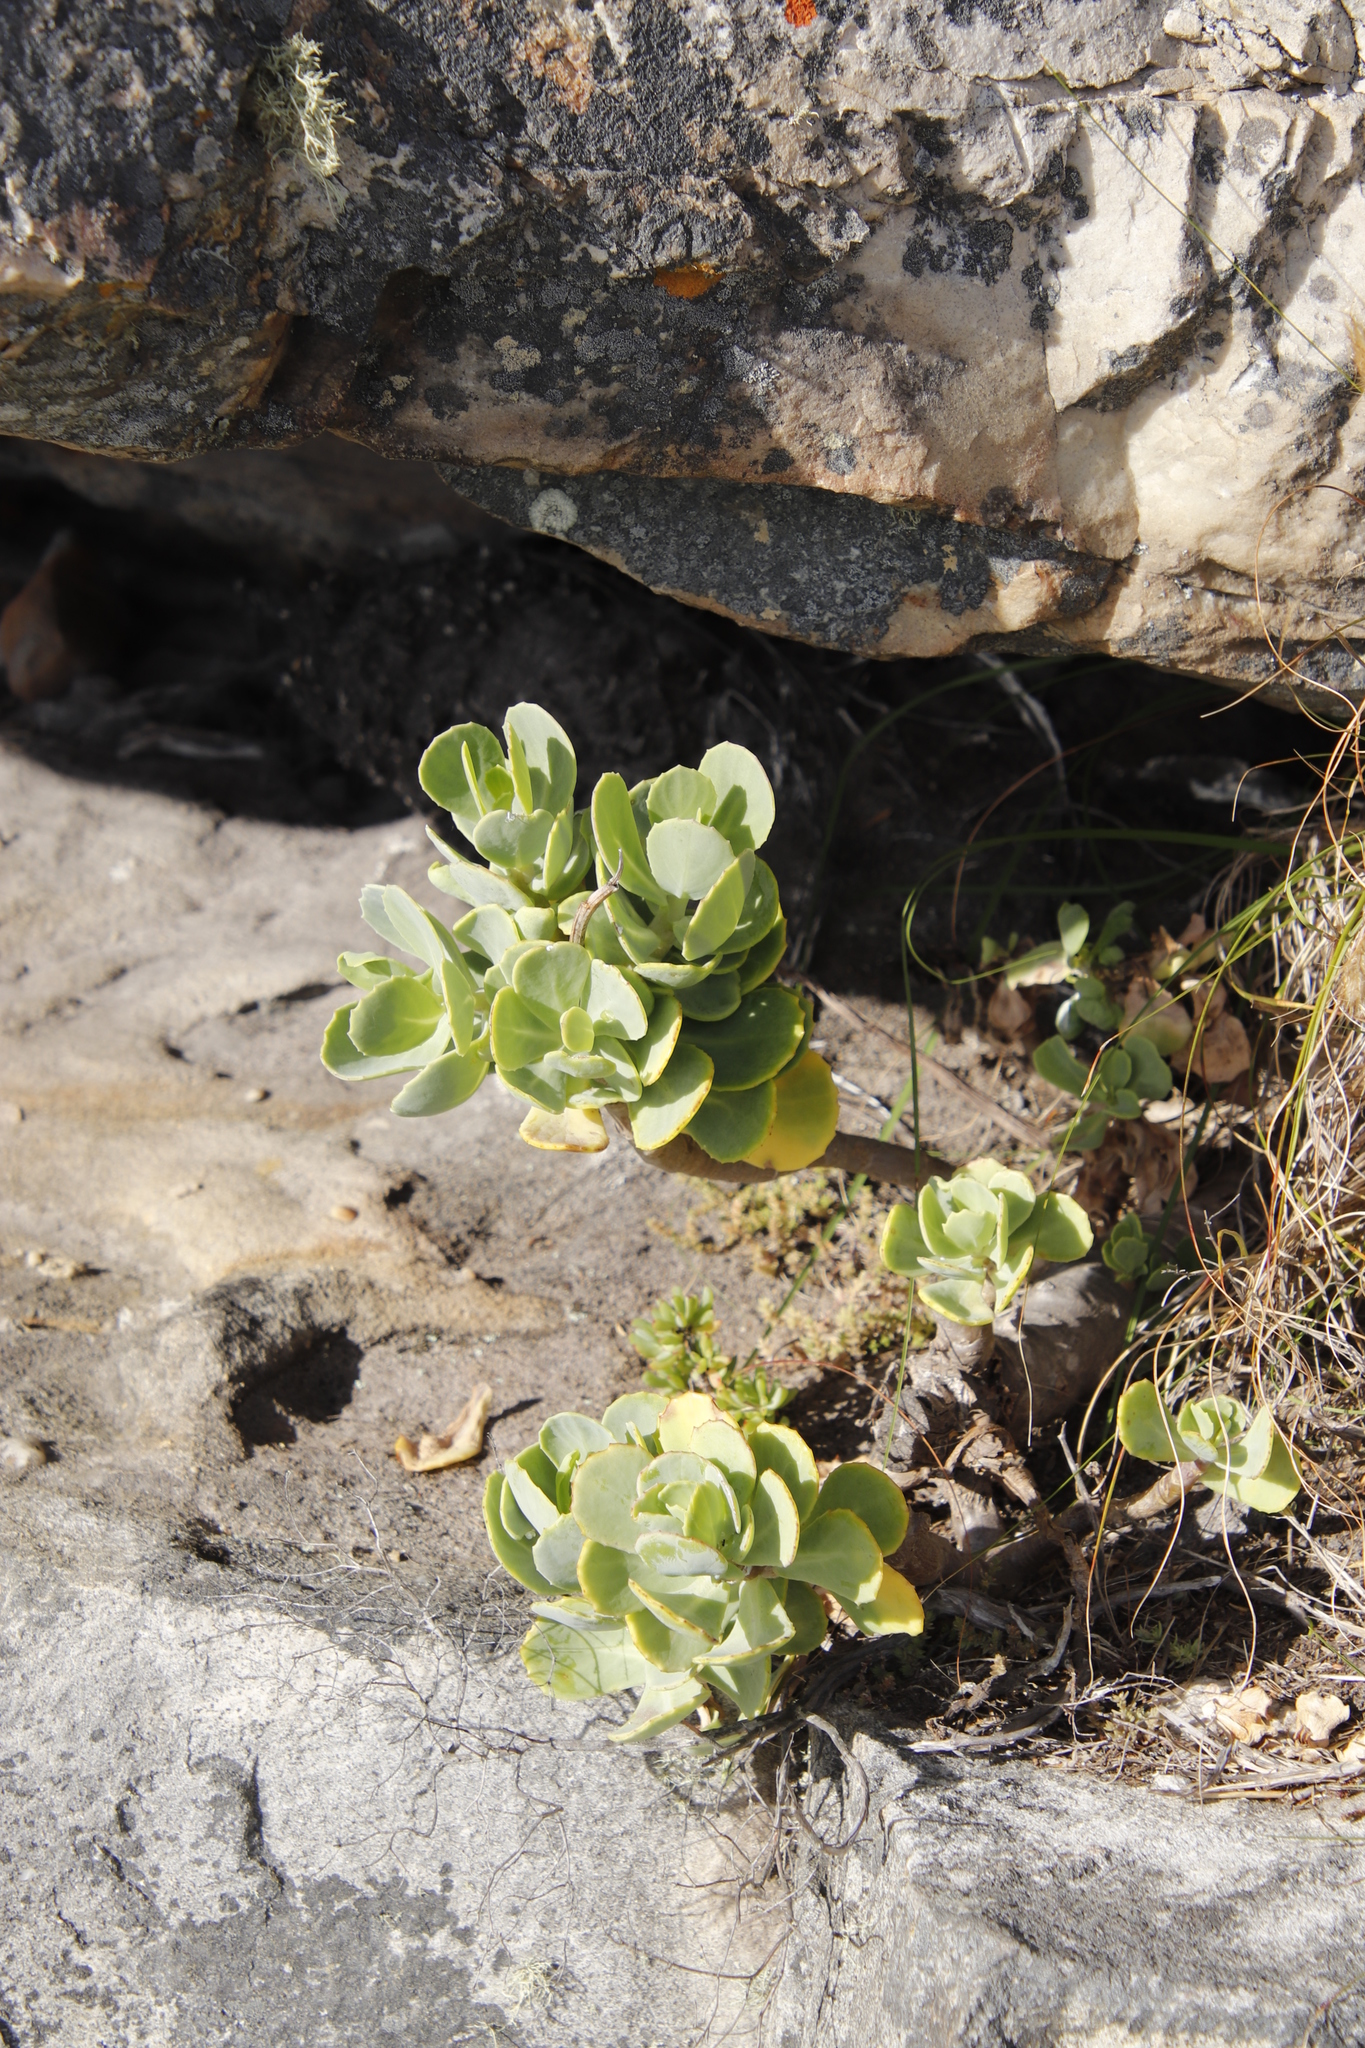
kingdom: Plantae
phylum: Tracheophyta
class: Magnoliopsida
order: Asterales
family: Asteraceae
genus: Othonna
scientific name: Othonna dentata
